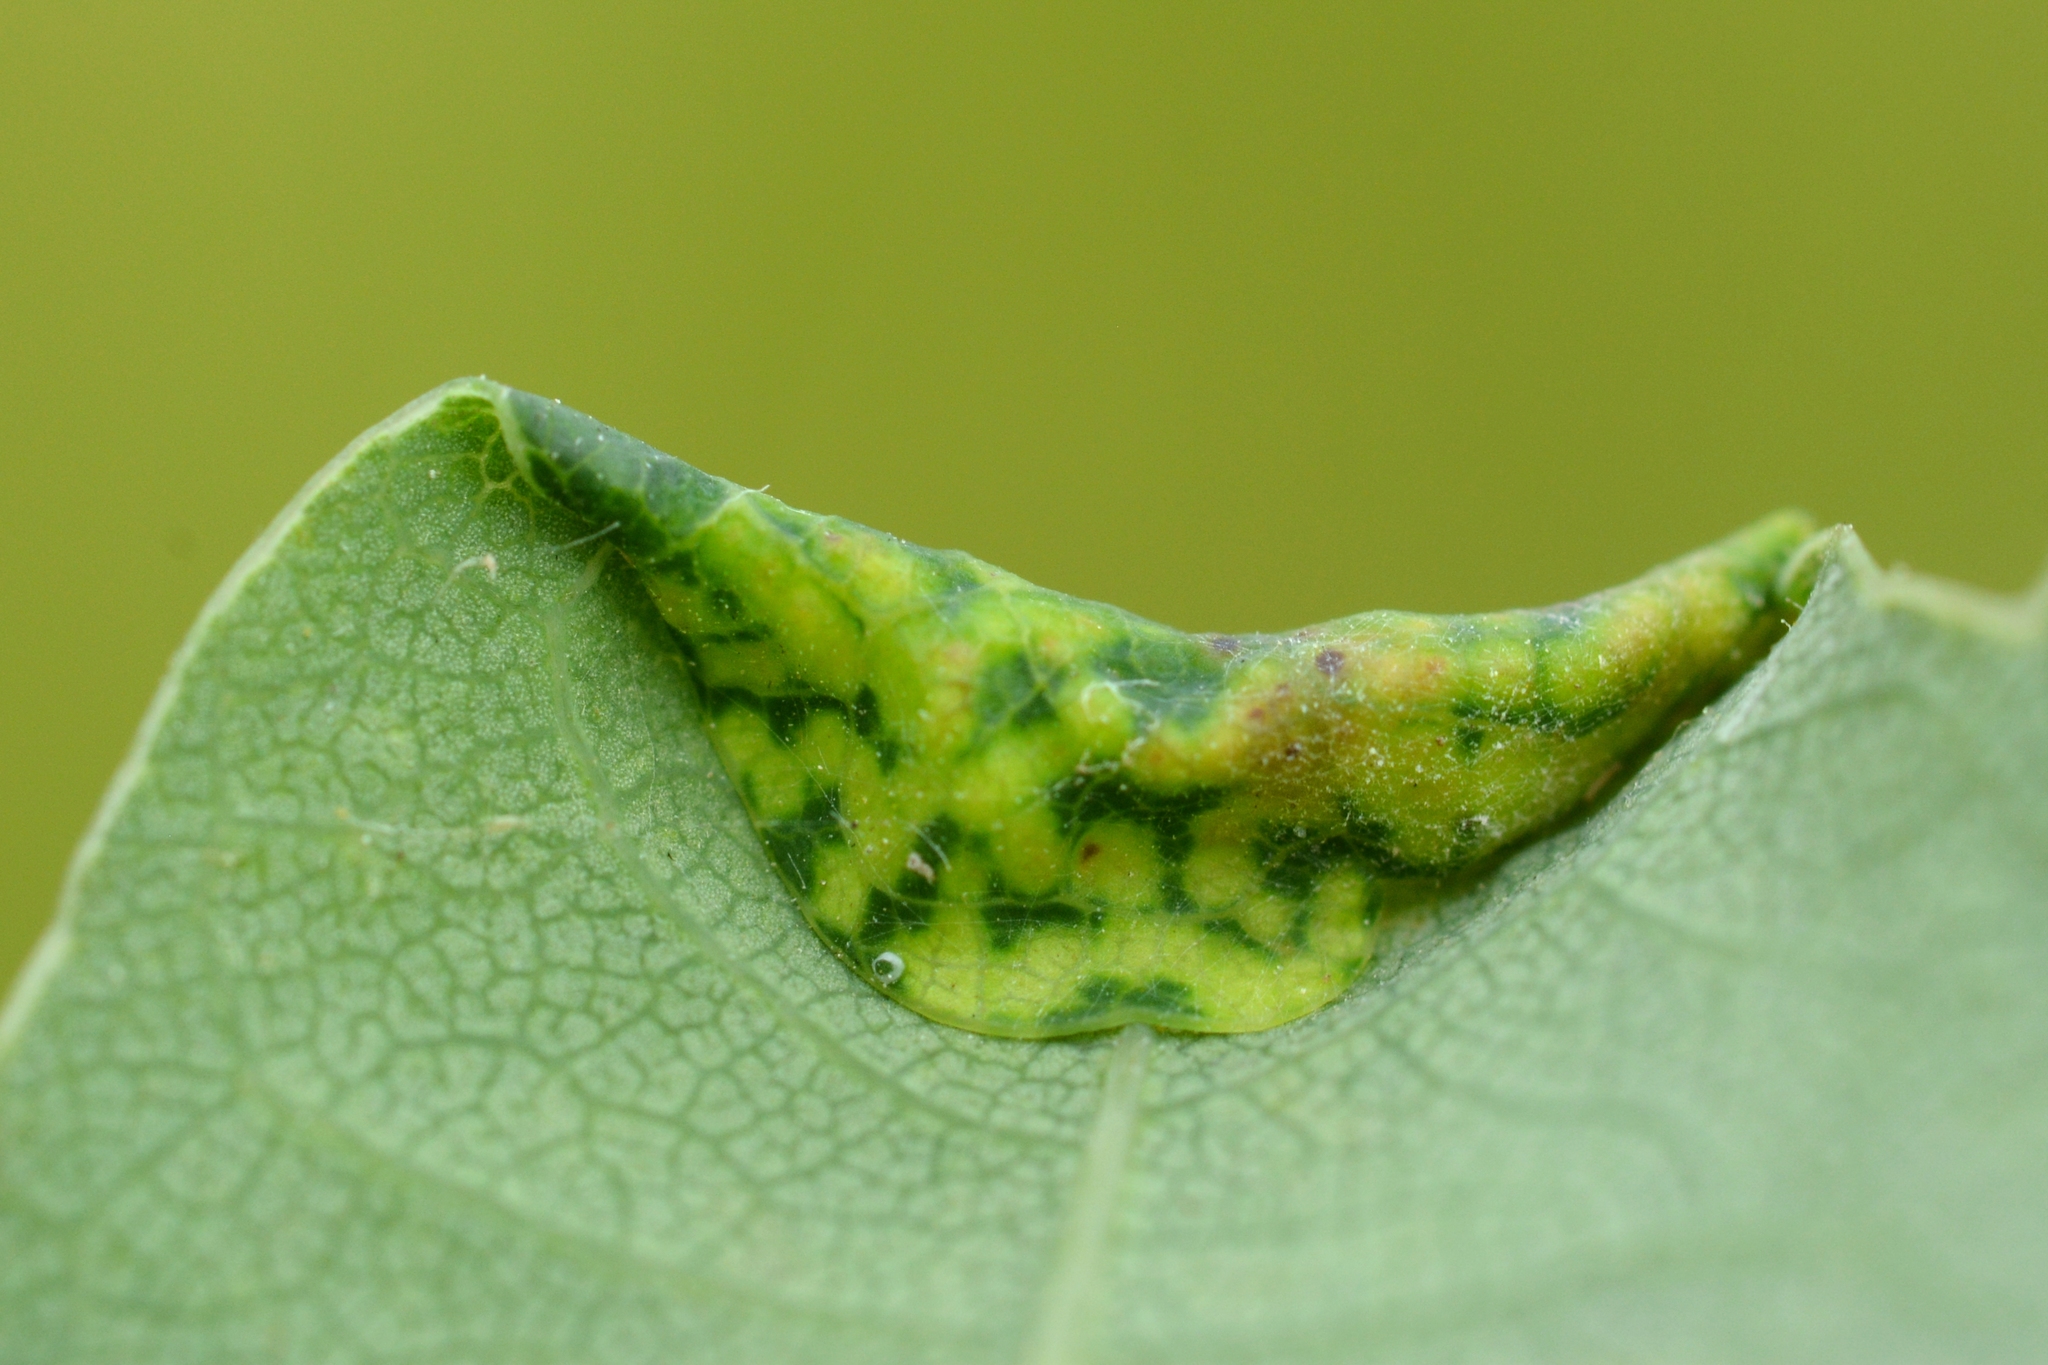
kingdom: Animalia
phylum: Arthropoda
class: Insecta
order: Diptera
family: Cecidomyiidae
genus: Macrodiplosis
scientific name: Macrodiplosis pustularis
